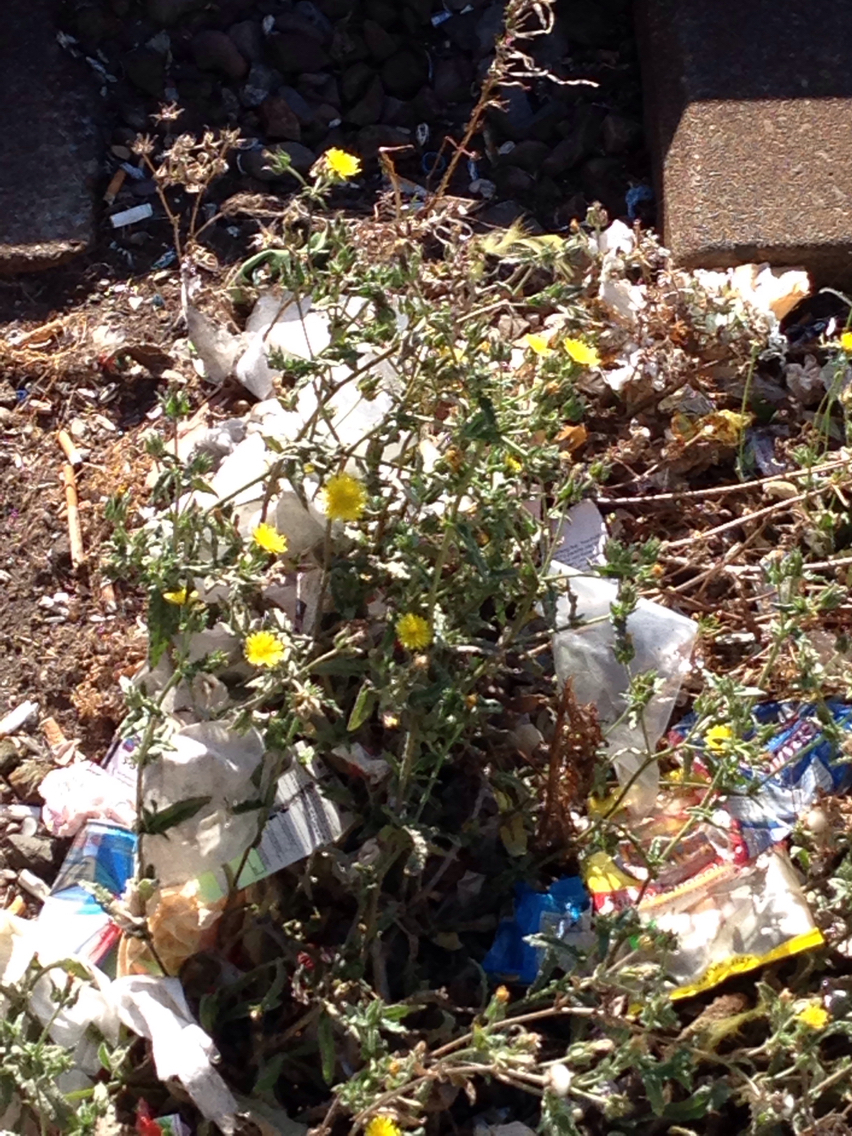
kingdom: Plantae
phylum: Tracheophyta
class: Magnoliopsida
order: Asterales
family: Asteraceae
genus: Helminthotheca
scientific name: Helminthotheca echioides
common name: Ox-tongue
